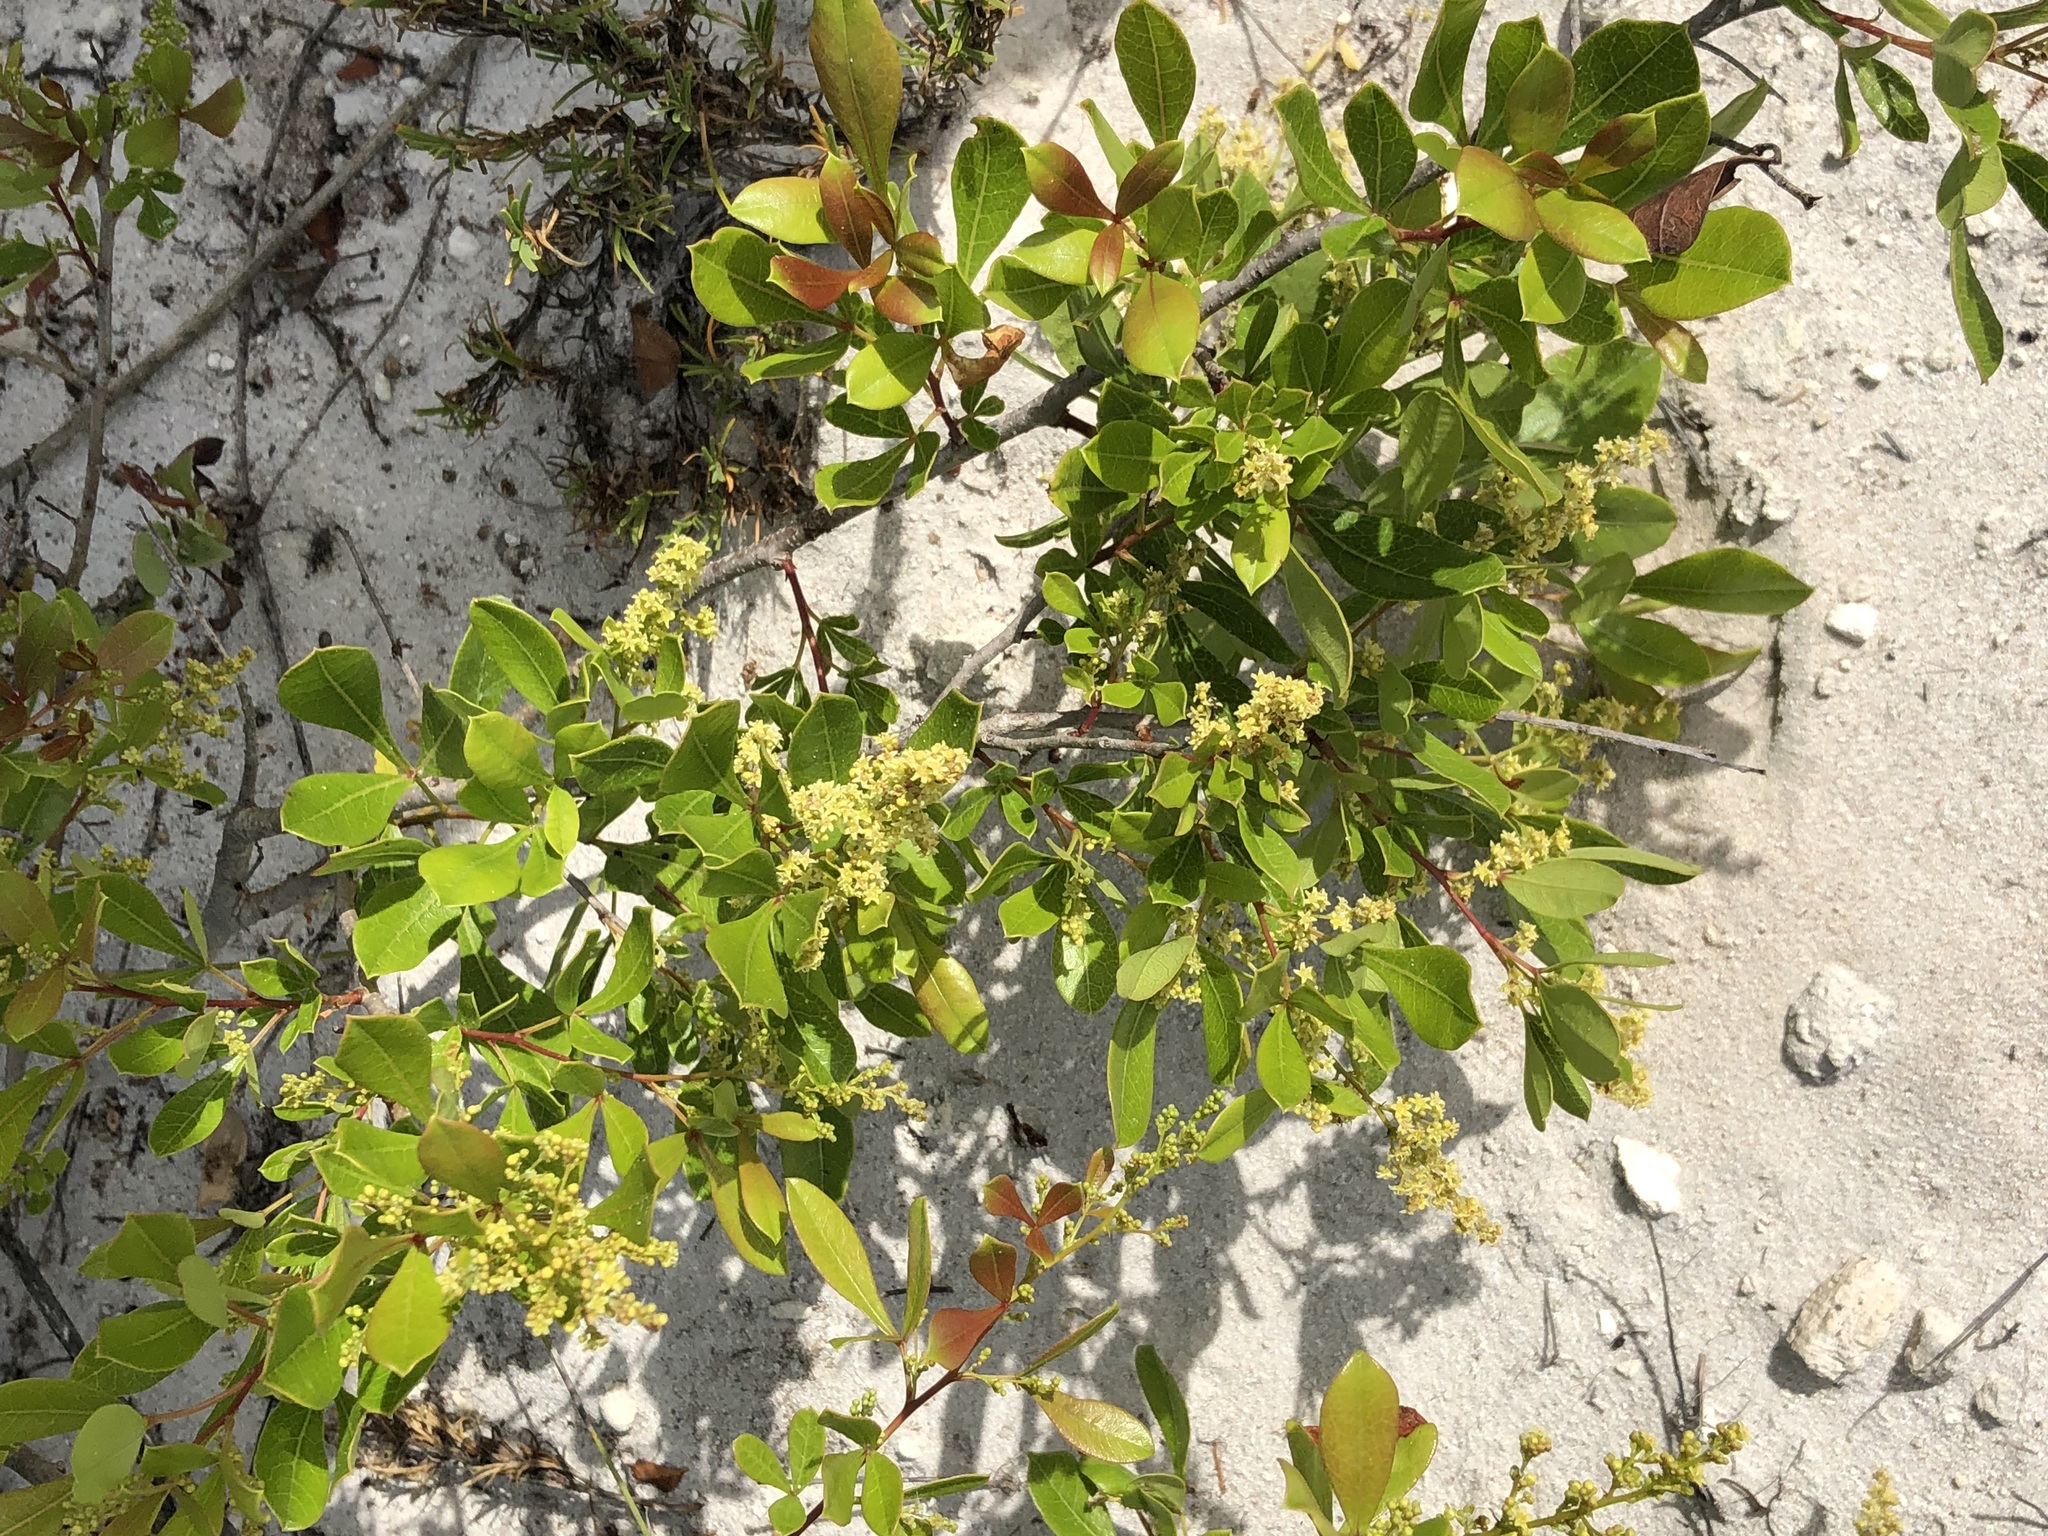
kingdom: Plantae
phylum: Tracheophyta
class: Magnoliopsida
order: Sapindales
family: Anacardiaceae
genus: Searsia
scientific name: Searsia laevigata
